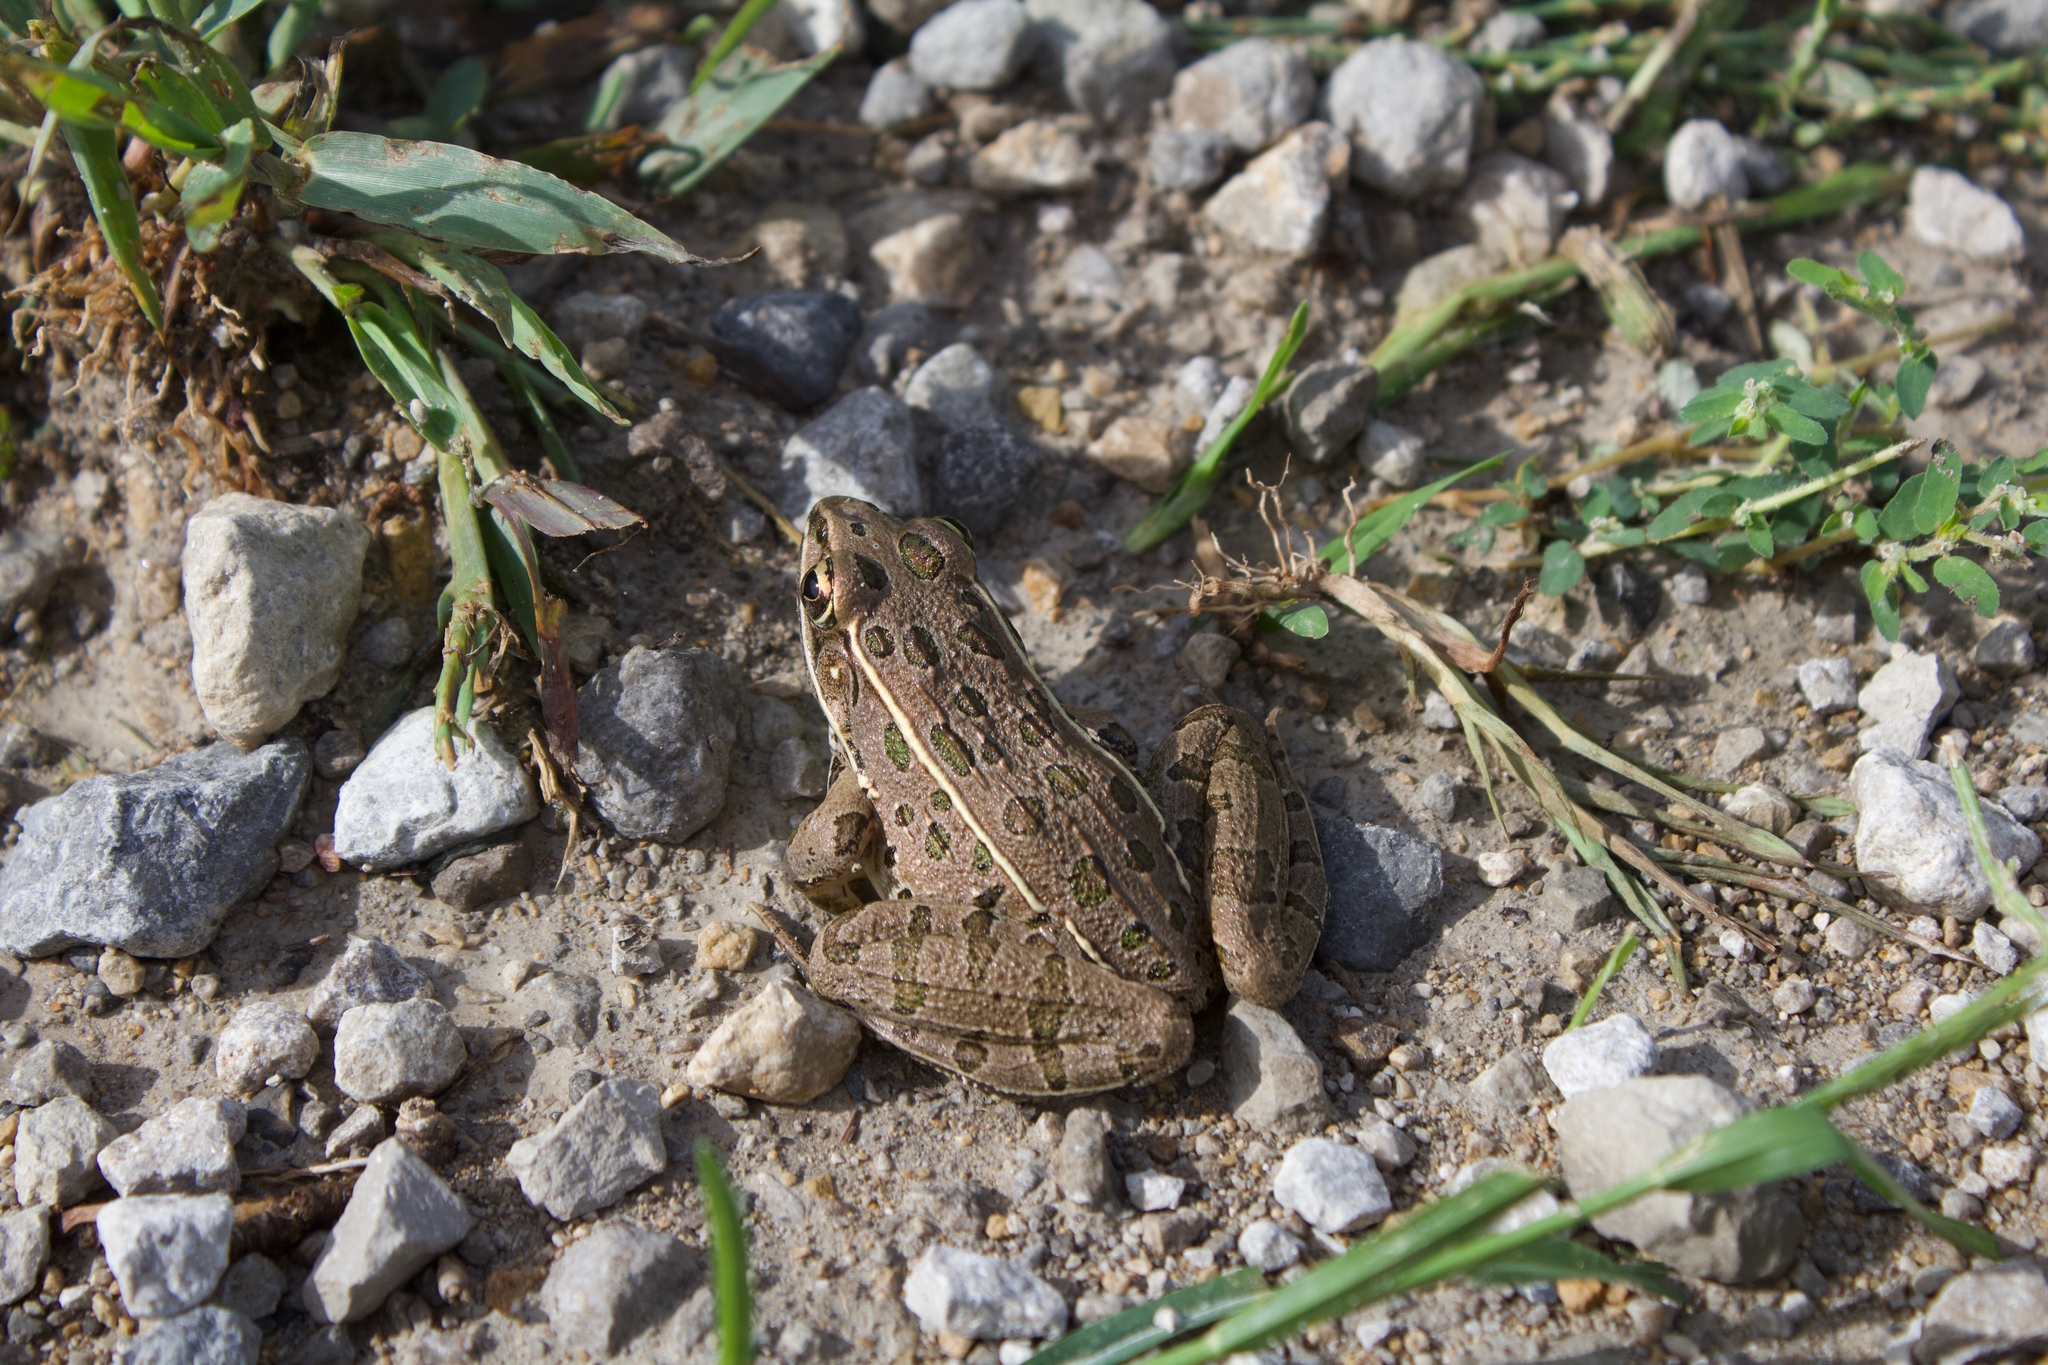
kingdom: Animalia
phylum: Chordata
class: Amphibia
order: Anura
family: Ranidae
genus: Lithobates
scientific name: Lithobates blairi
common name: Plains leopard frog
